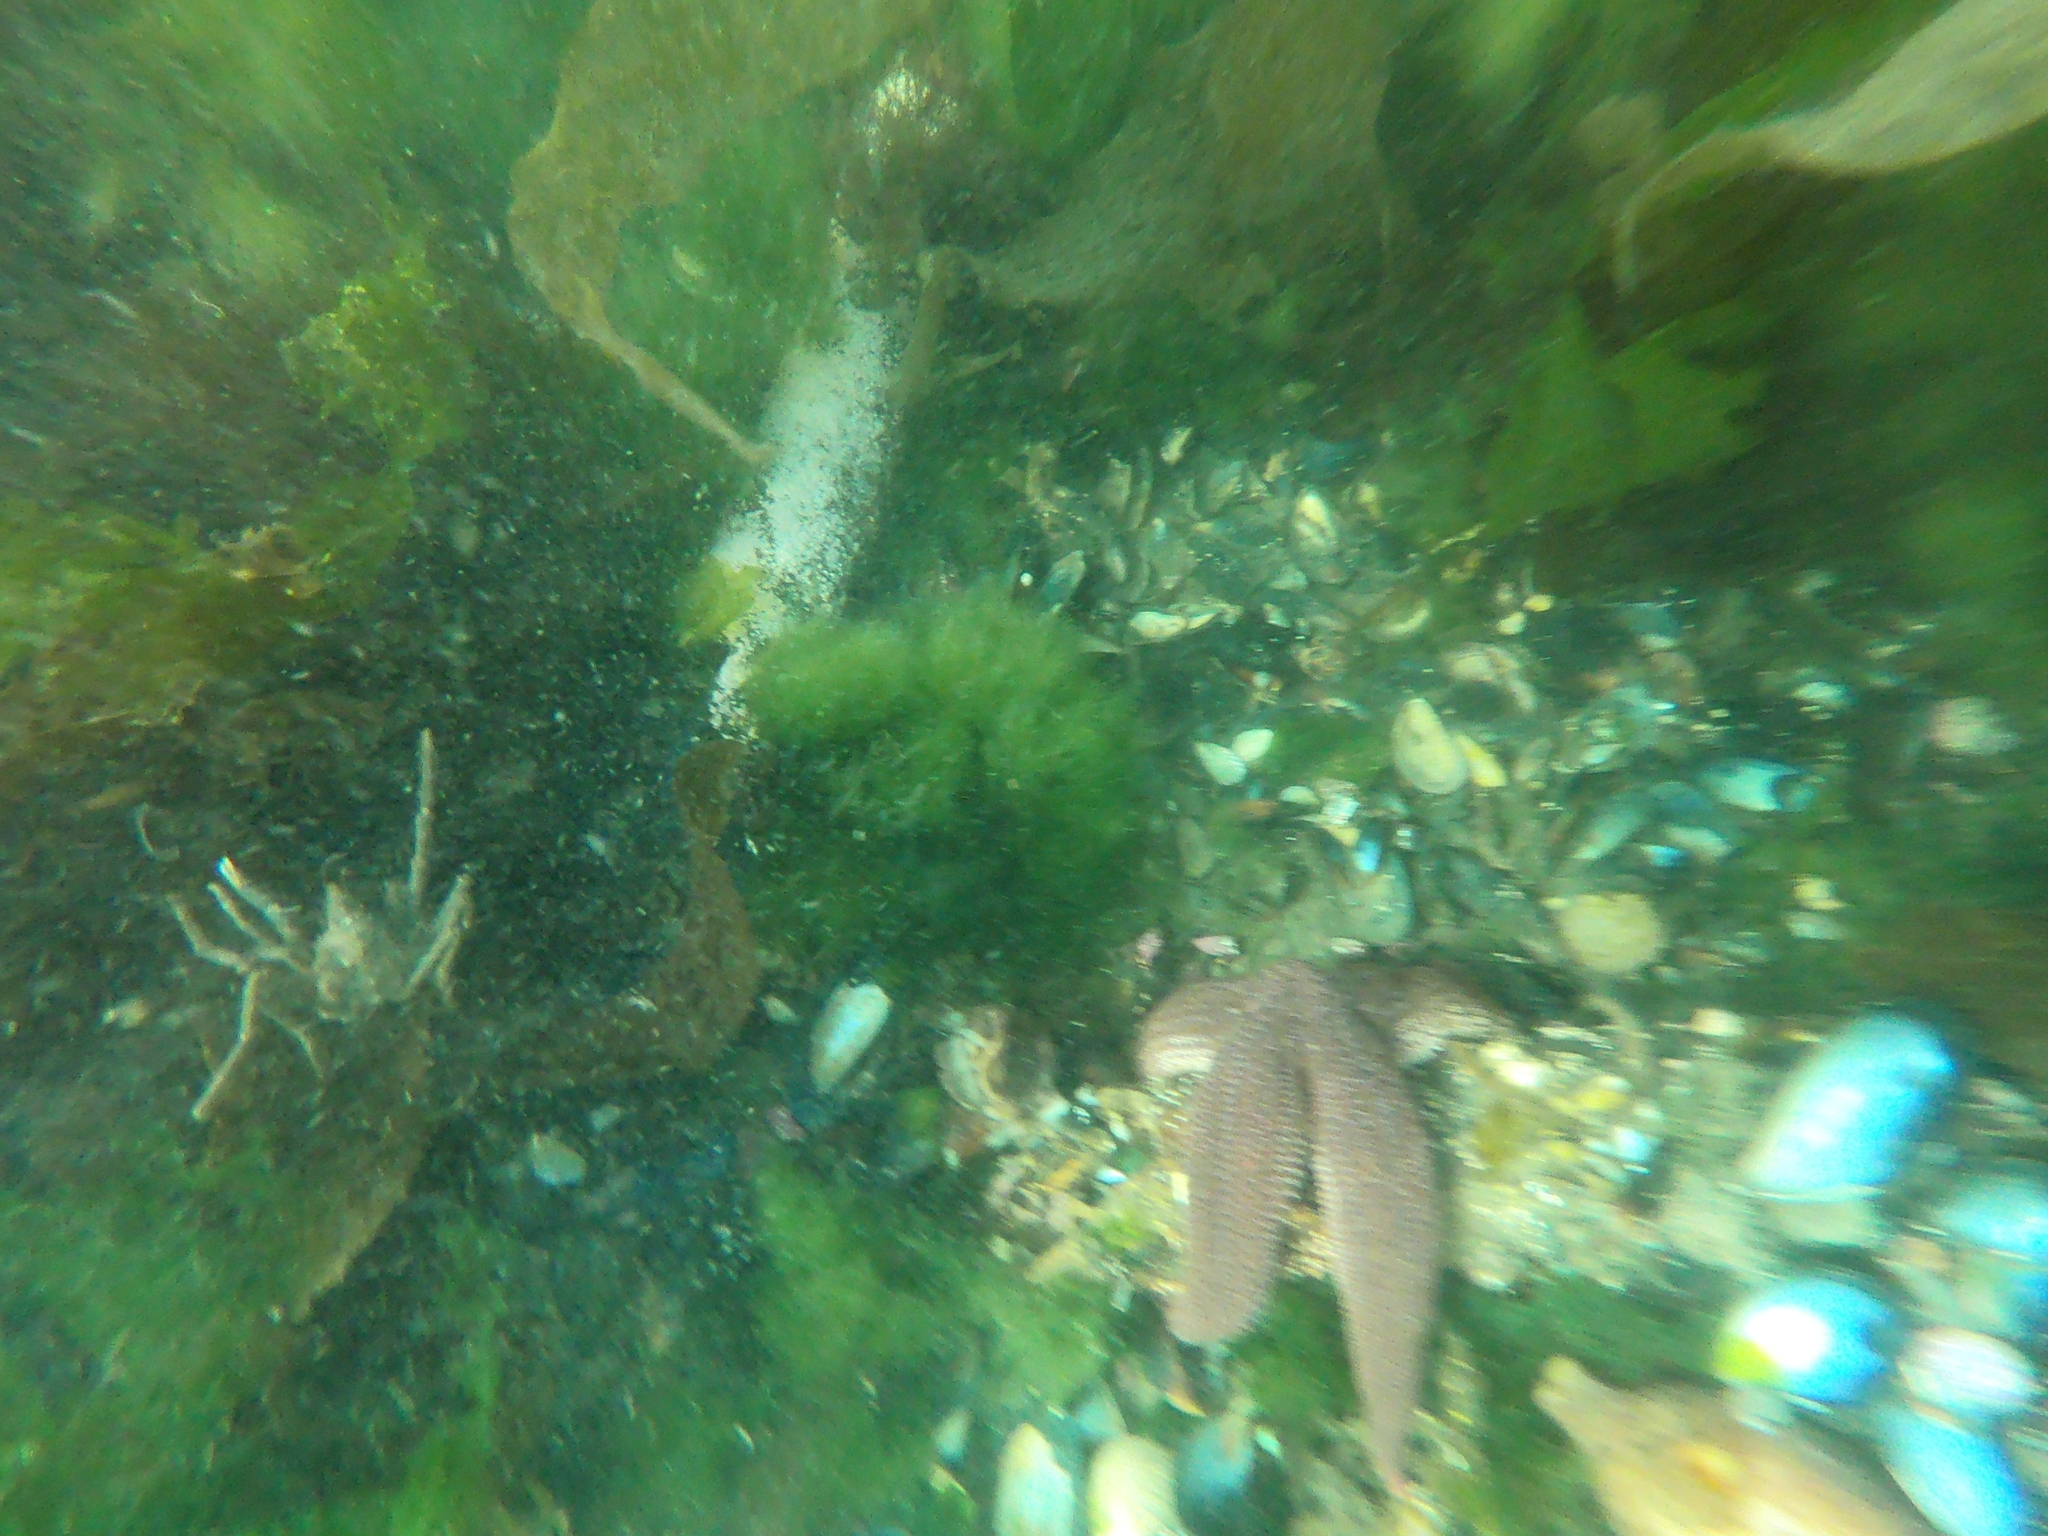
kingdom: Animalia
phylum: Echinodermata
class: Asteroidea
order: Forcipulatida
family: Stichasteridae
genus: Cosmasterias
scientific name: Cosmasterias lurida
